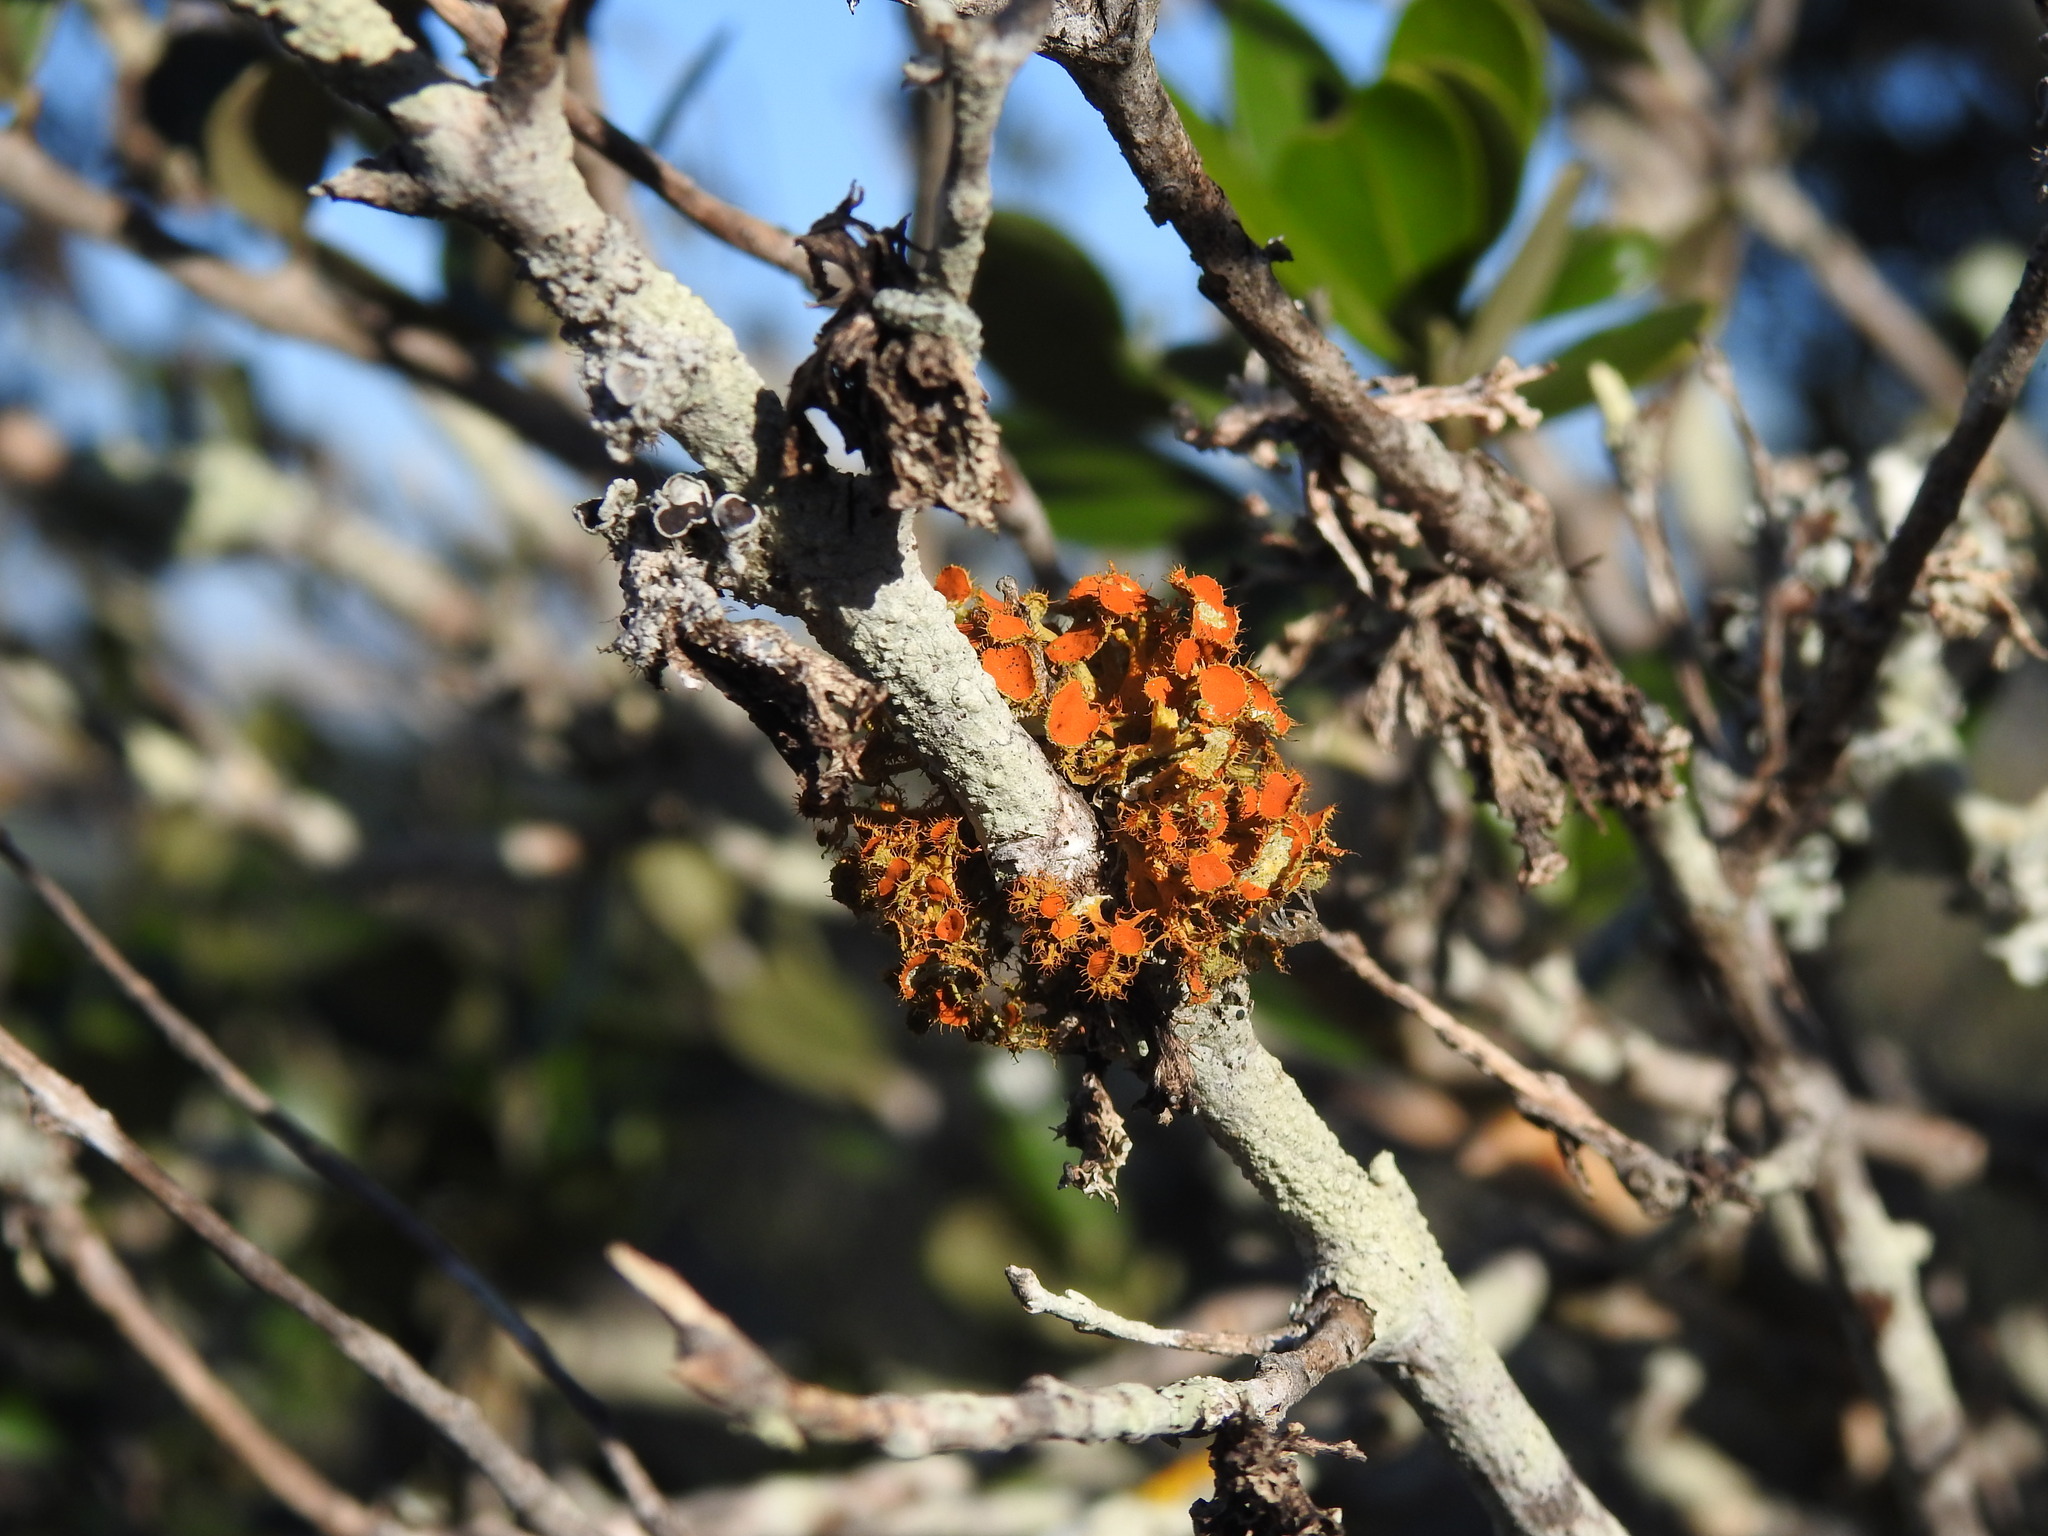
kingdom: Fungi
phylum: Ascomycota
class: Lecanoromycetes
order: Teloschistales
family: Teloschistaceae
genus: Niorma
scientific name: Niorma chrysophthalma
